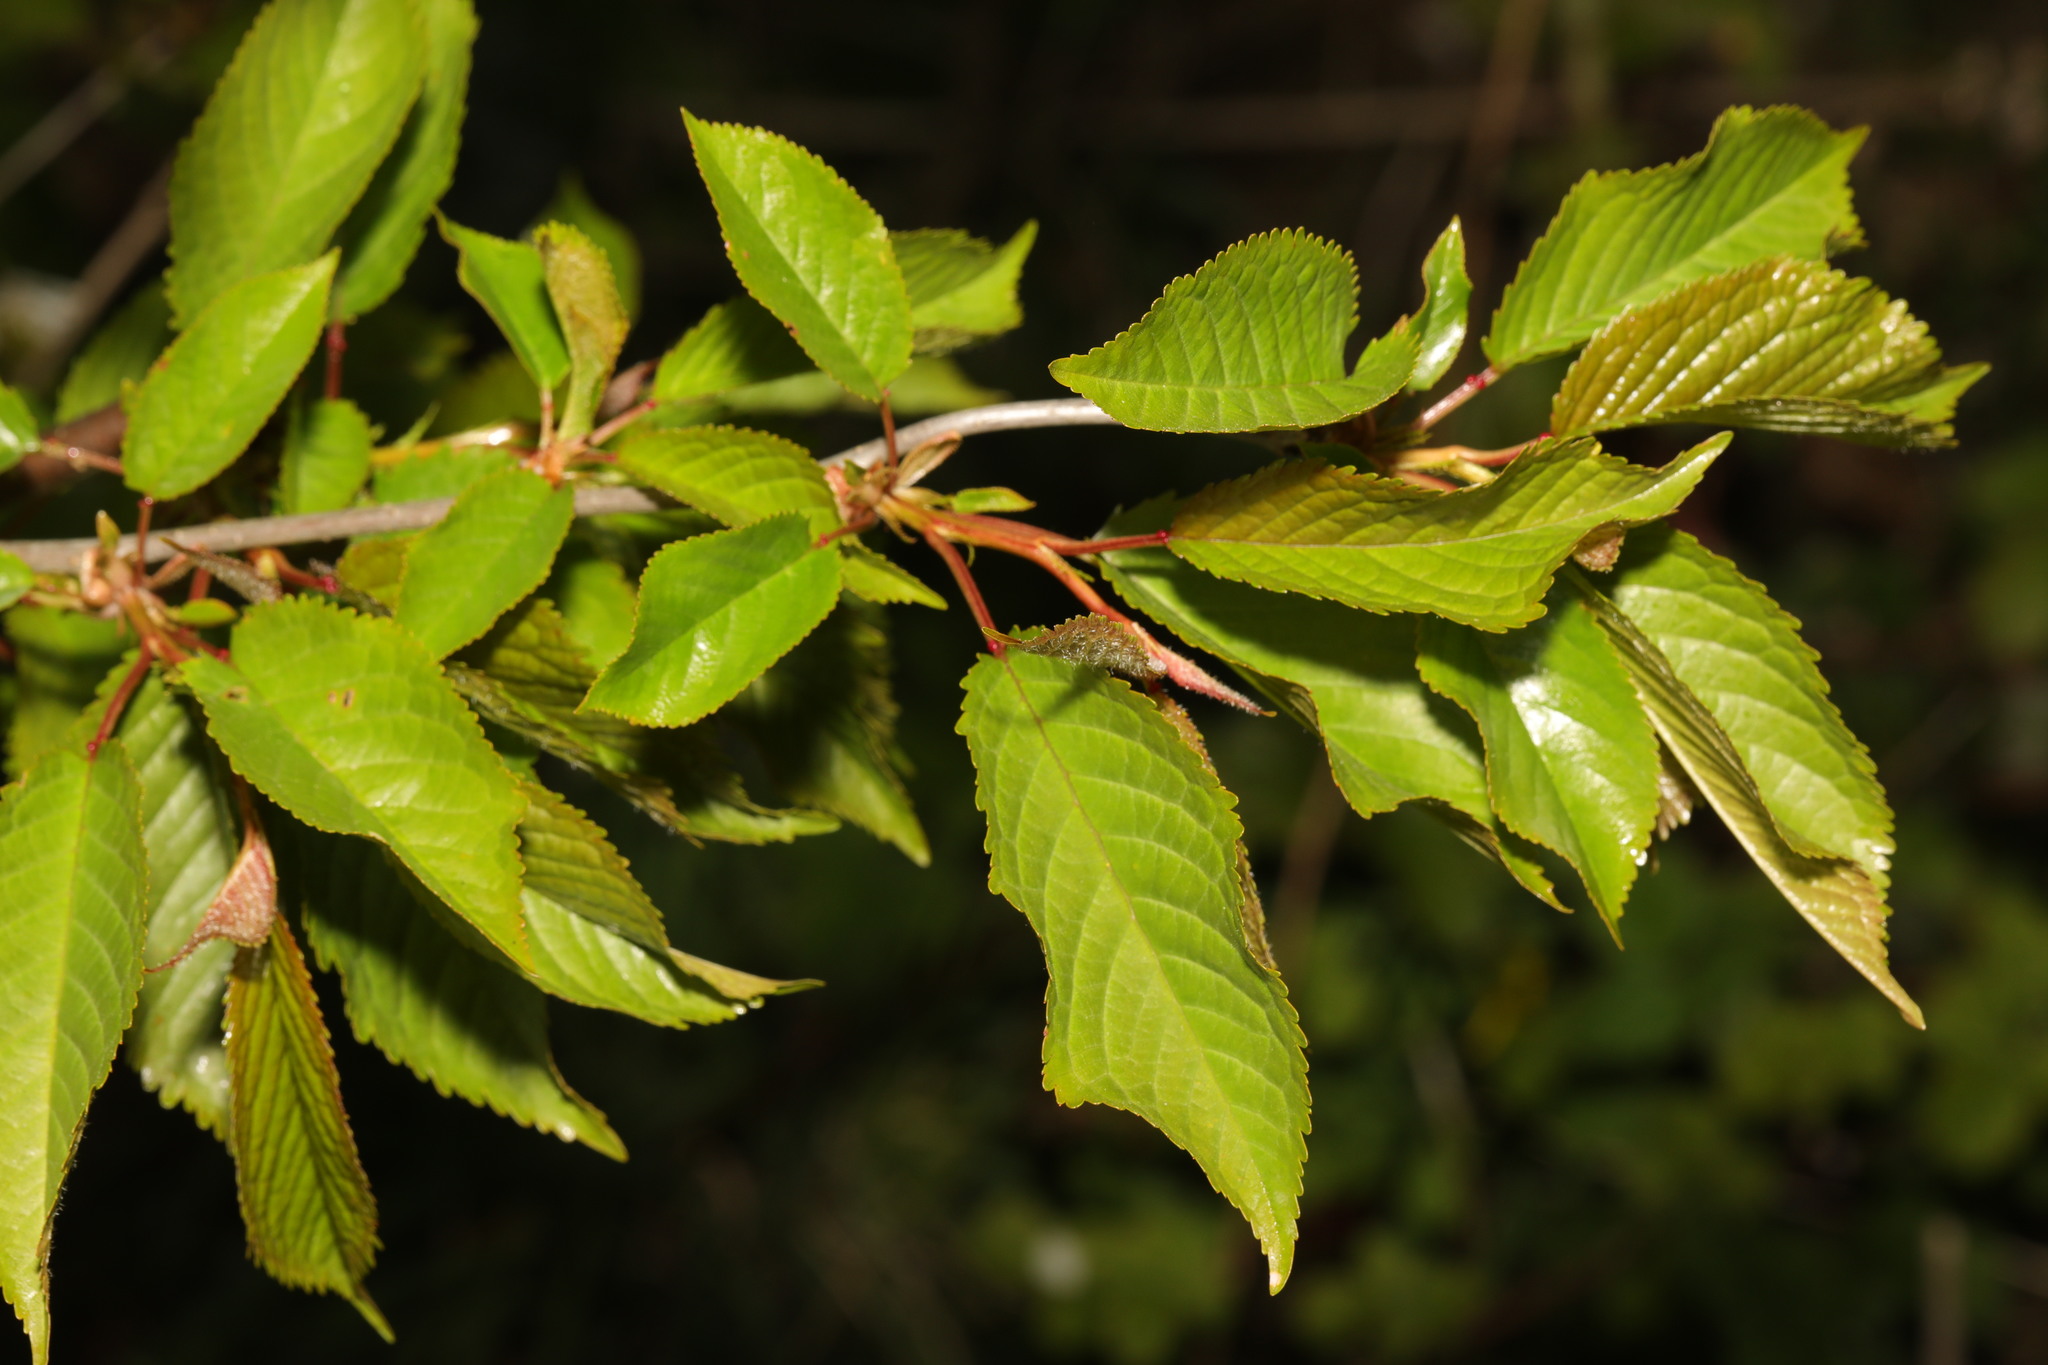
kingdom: Plantae
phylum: Tracheophyta
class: Magnoliopsida
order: Rosales
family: Rosaceae
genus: Prunus
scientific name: Prunus avium
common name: Sweet cherry
